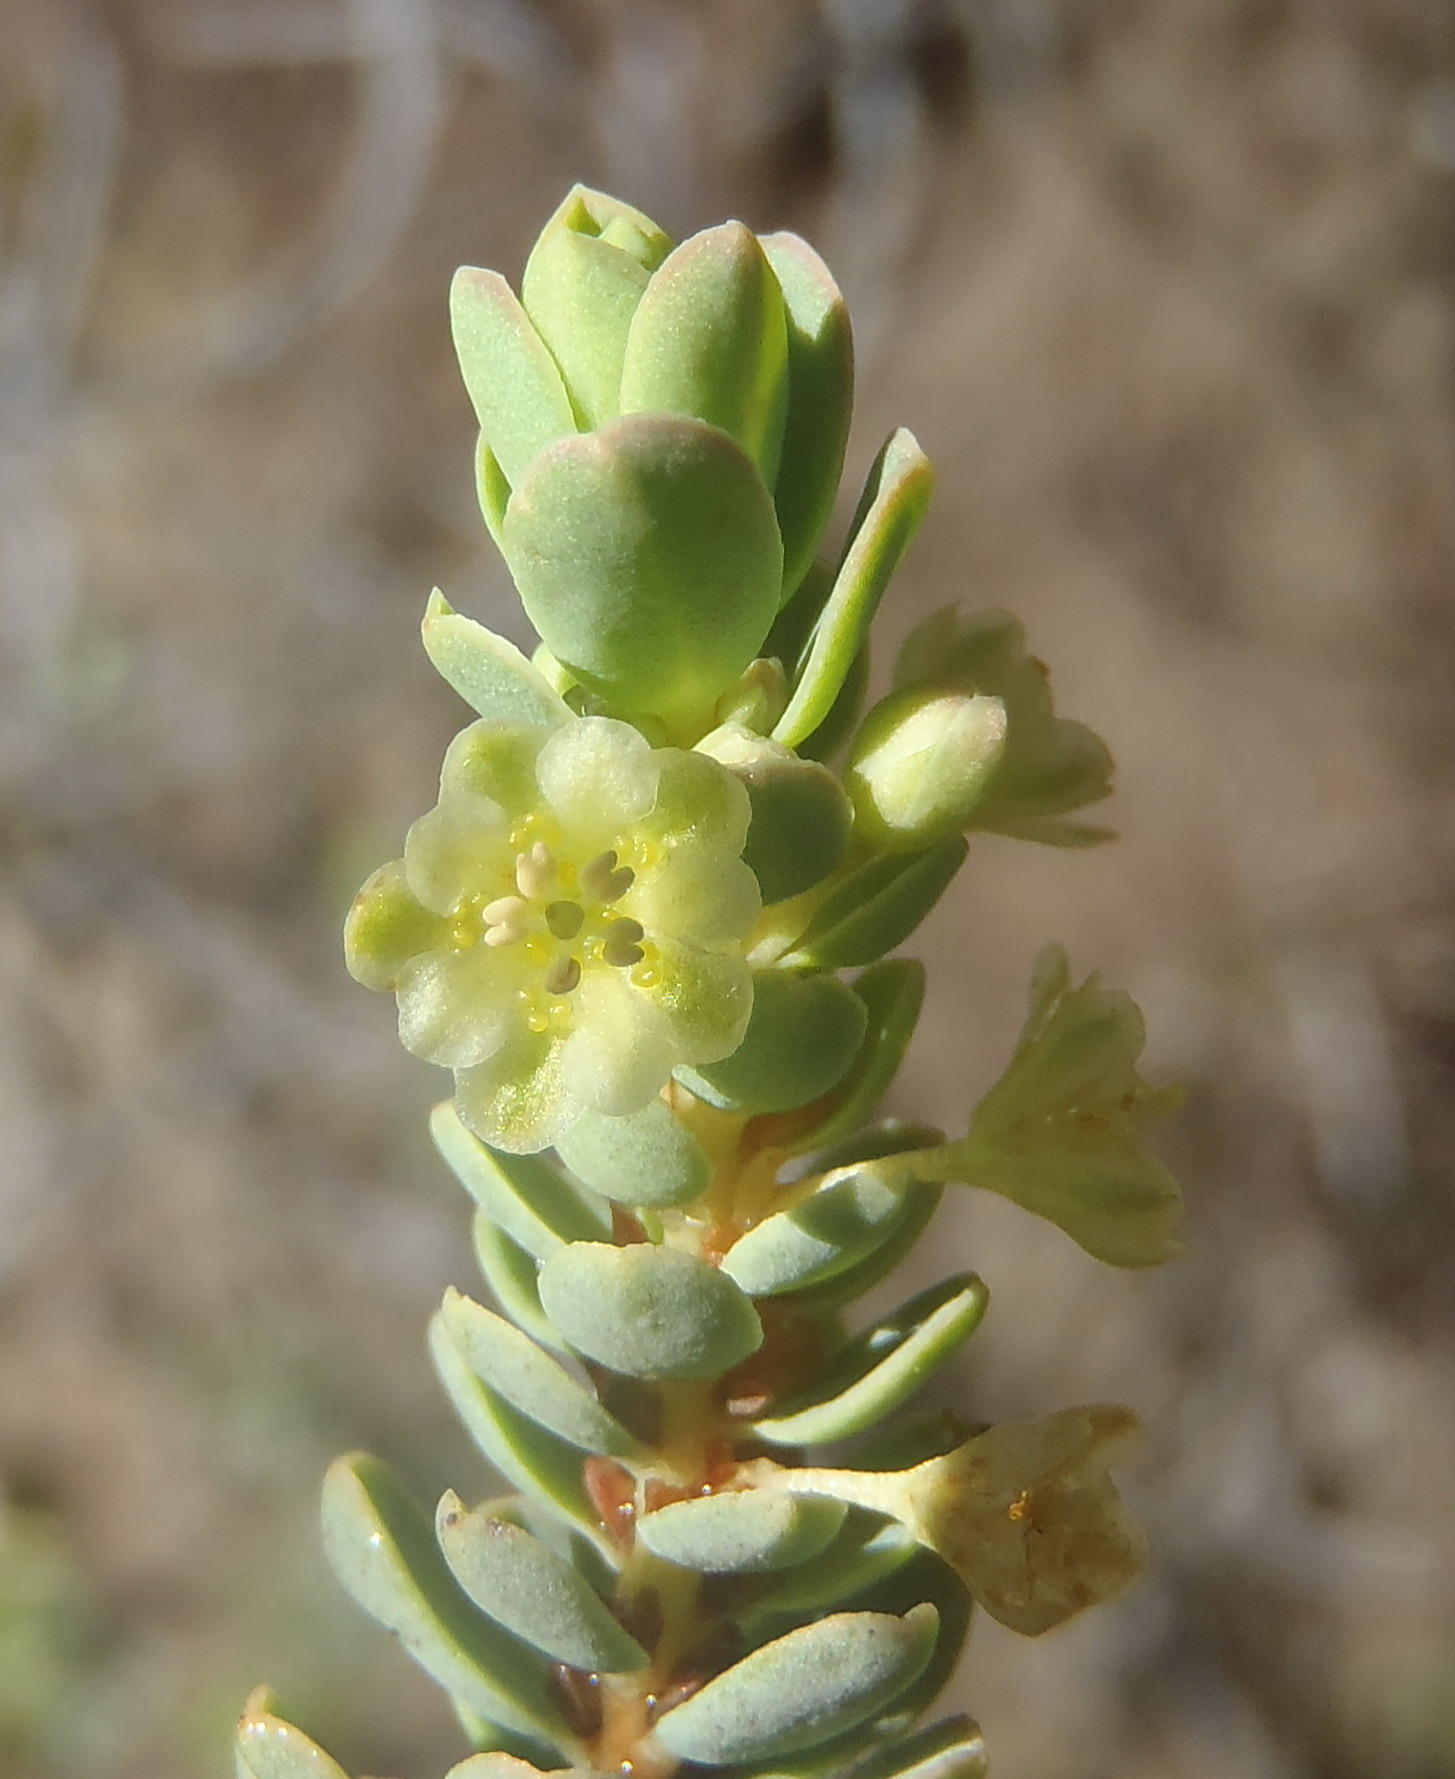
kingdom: Plantae
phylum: Tracheophyta
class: Magnoliopsida
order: Malpighiales
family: Peraceae
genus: Clutia
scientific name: Clutia laxa
